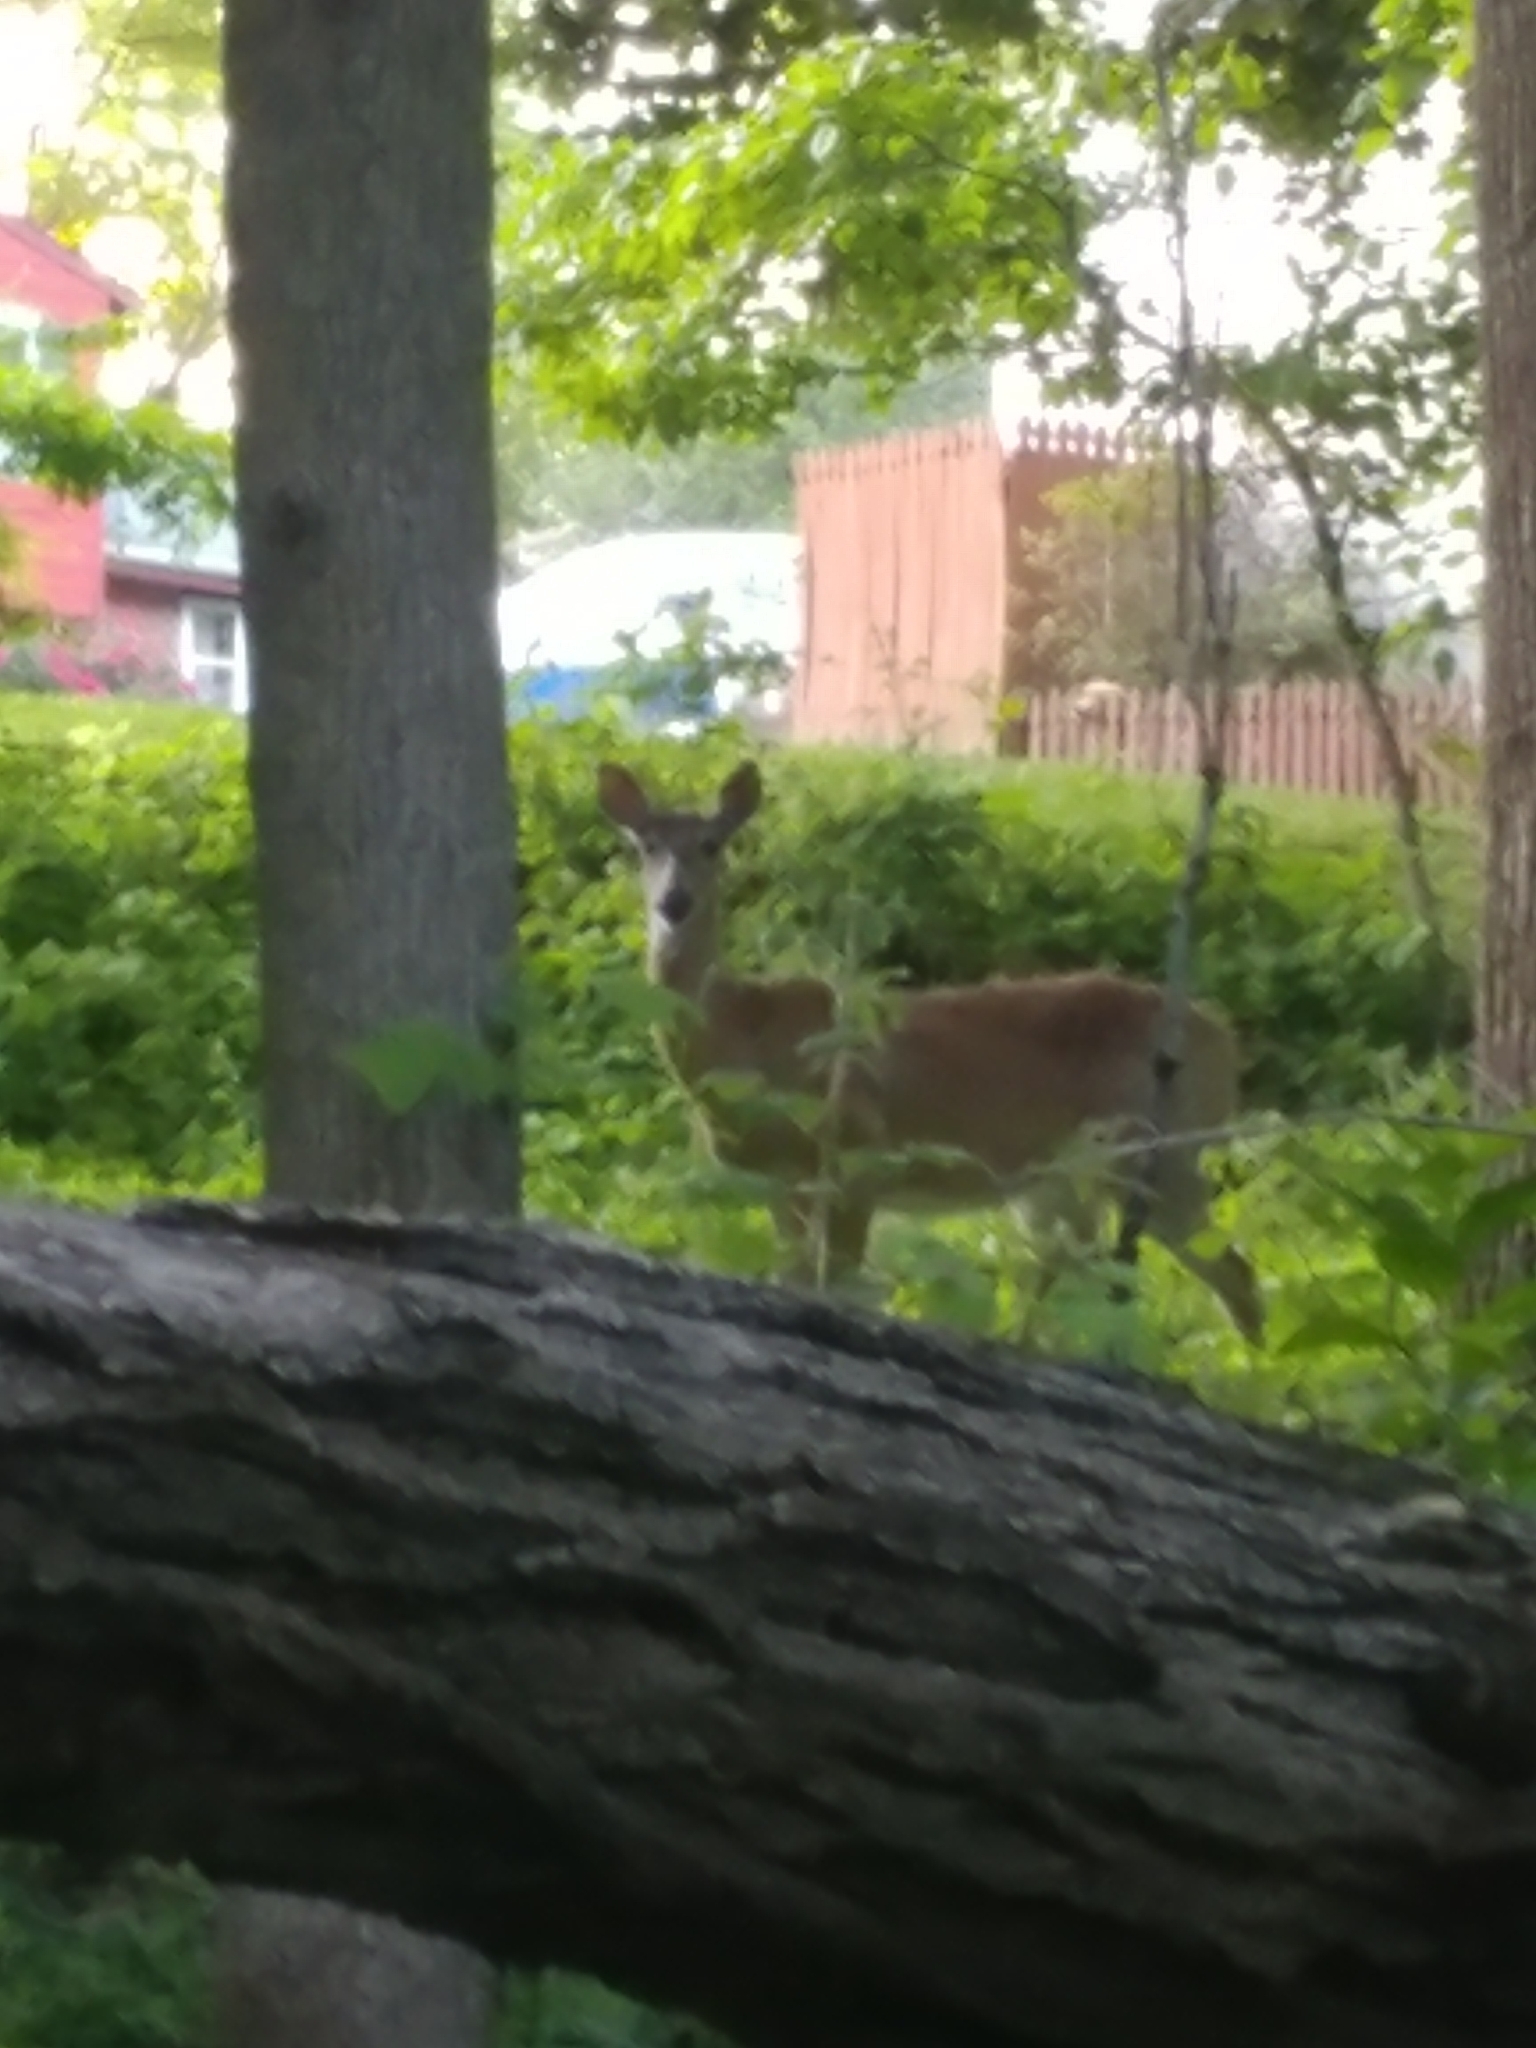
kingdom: Animalia
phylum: Chordata
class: Mammalia
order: Artiodactyla
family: Cervidae
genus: Odocoileus
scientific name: Odocoileus virginianus
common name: White-tailed deer
